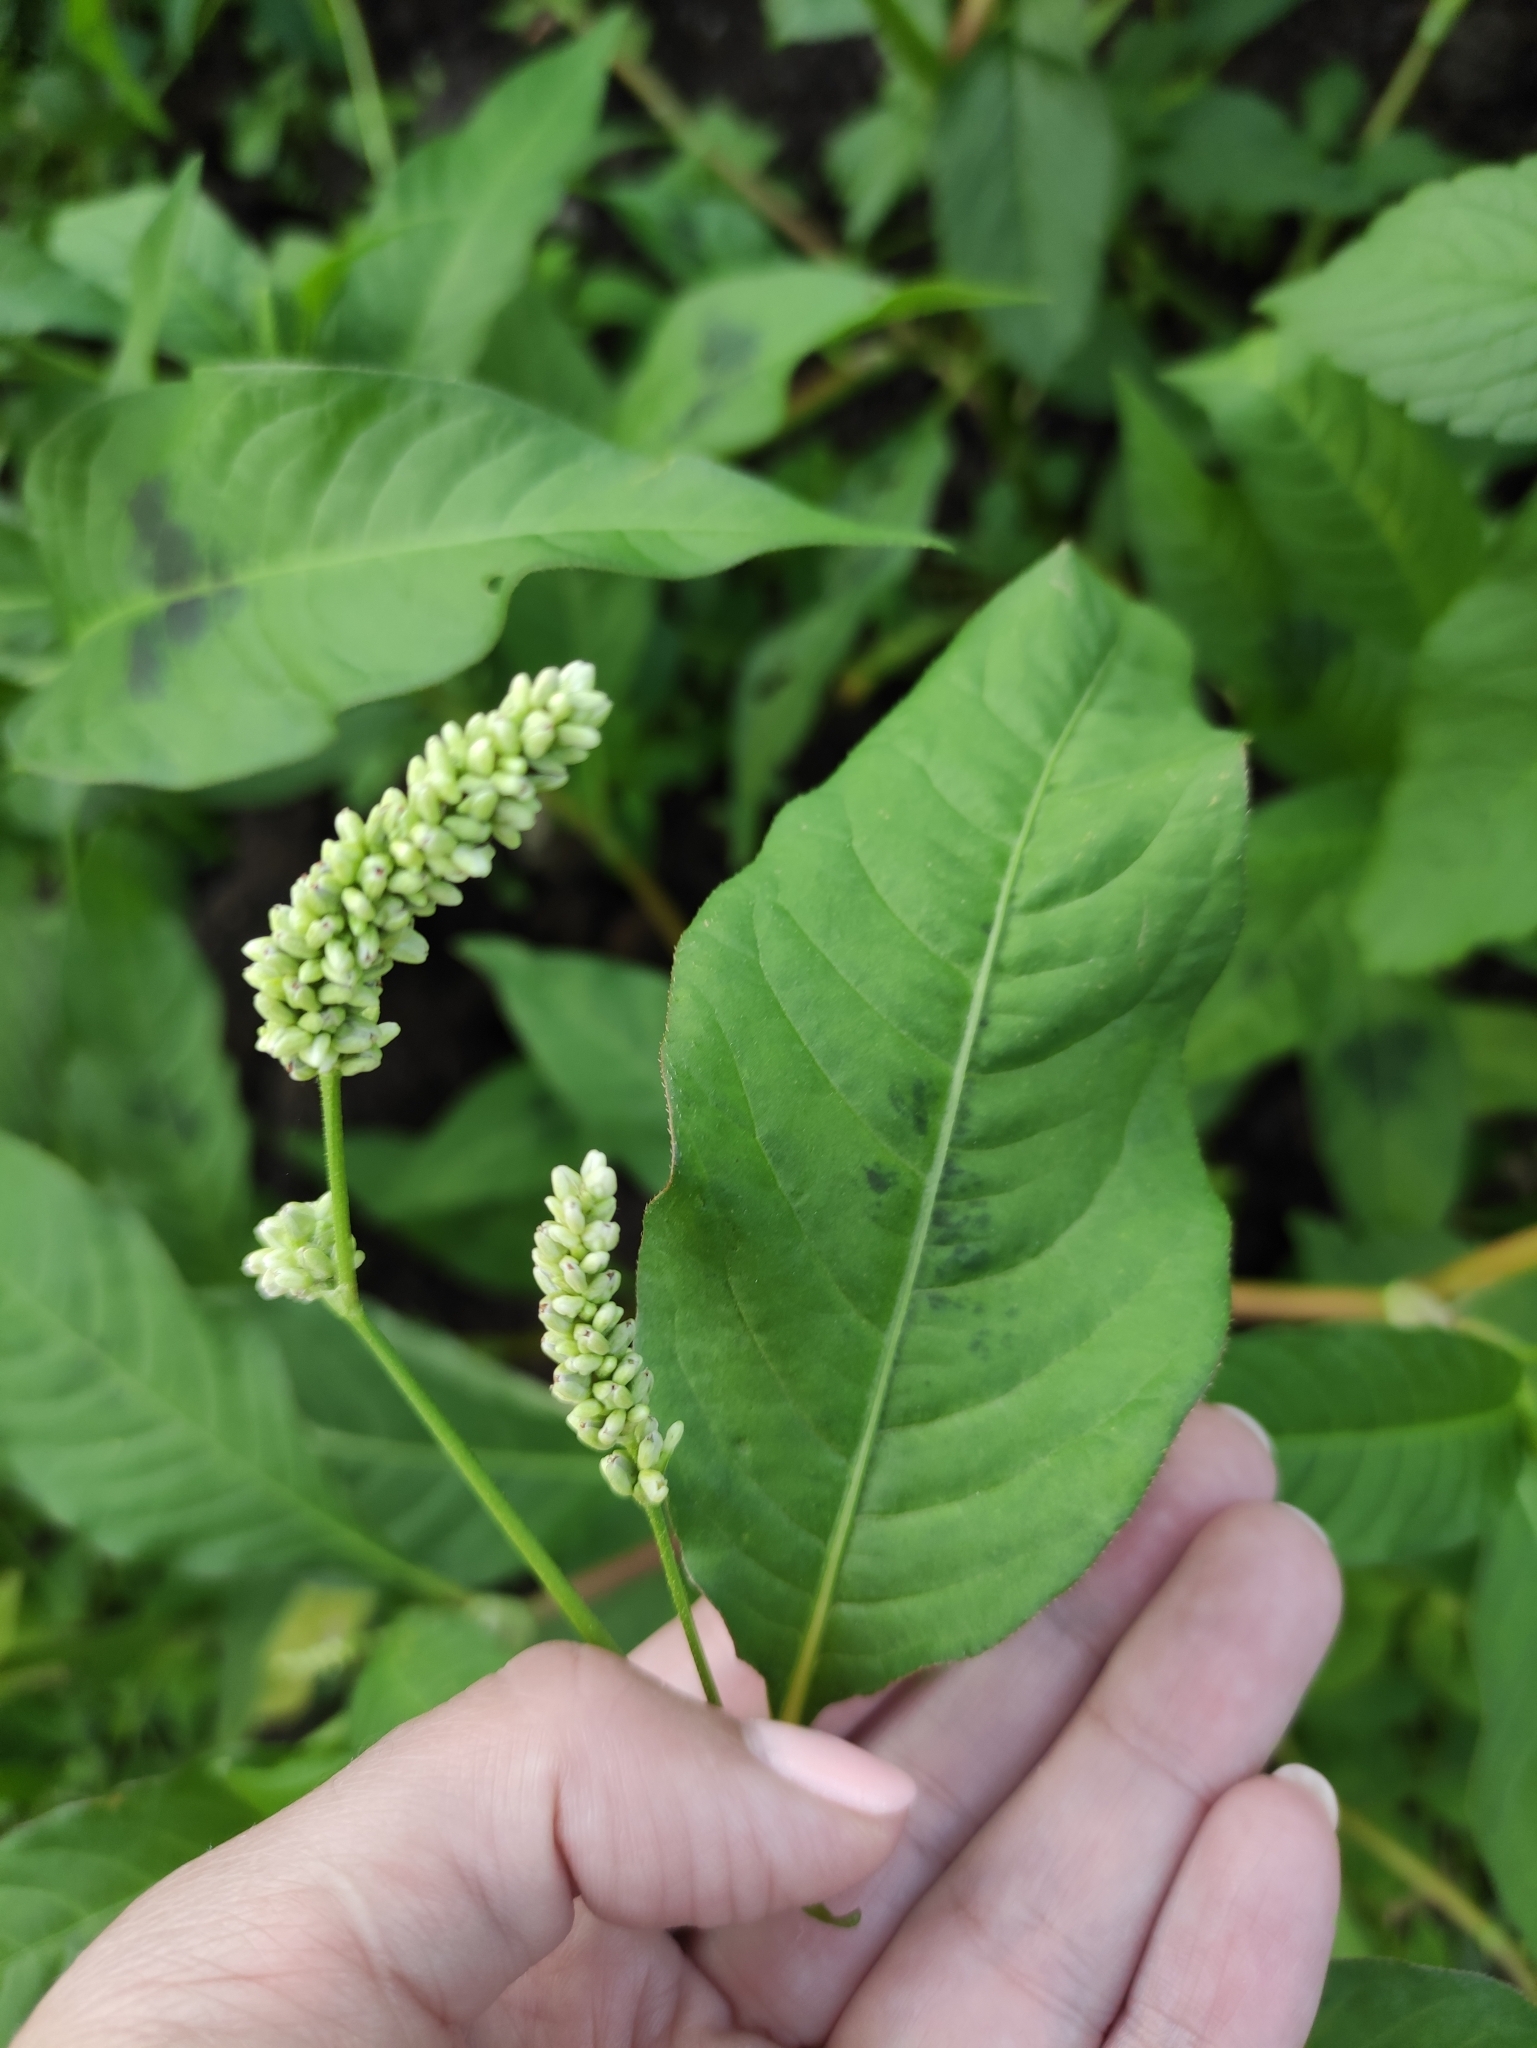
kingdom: Plantae
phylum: Tracheophyta
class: Magnoliopsida
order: Caryophyllales
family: Polygonaceae
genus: Persicaria
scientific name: Persicaria lapathifolia
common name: Curlytop knotweed
